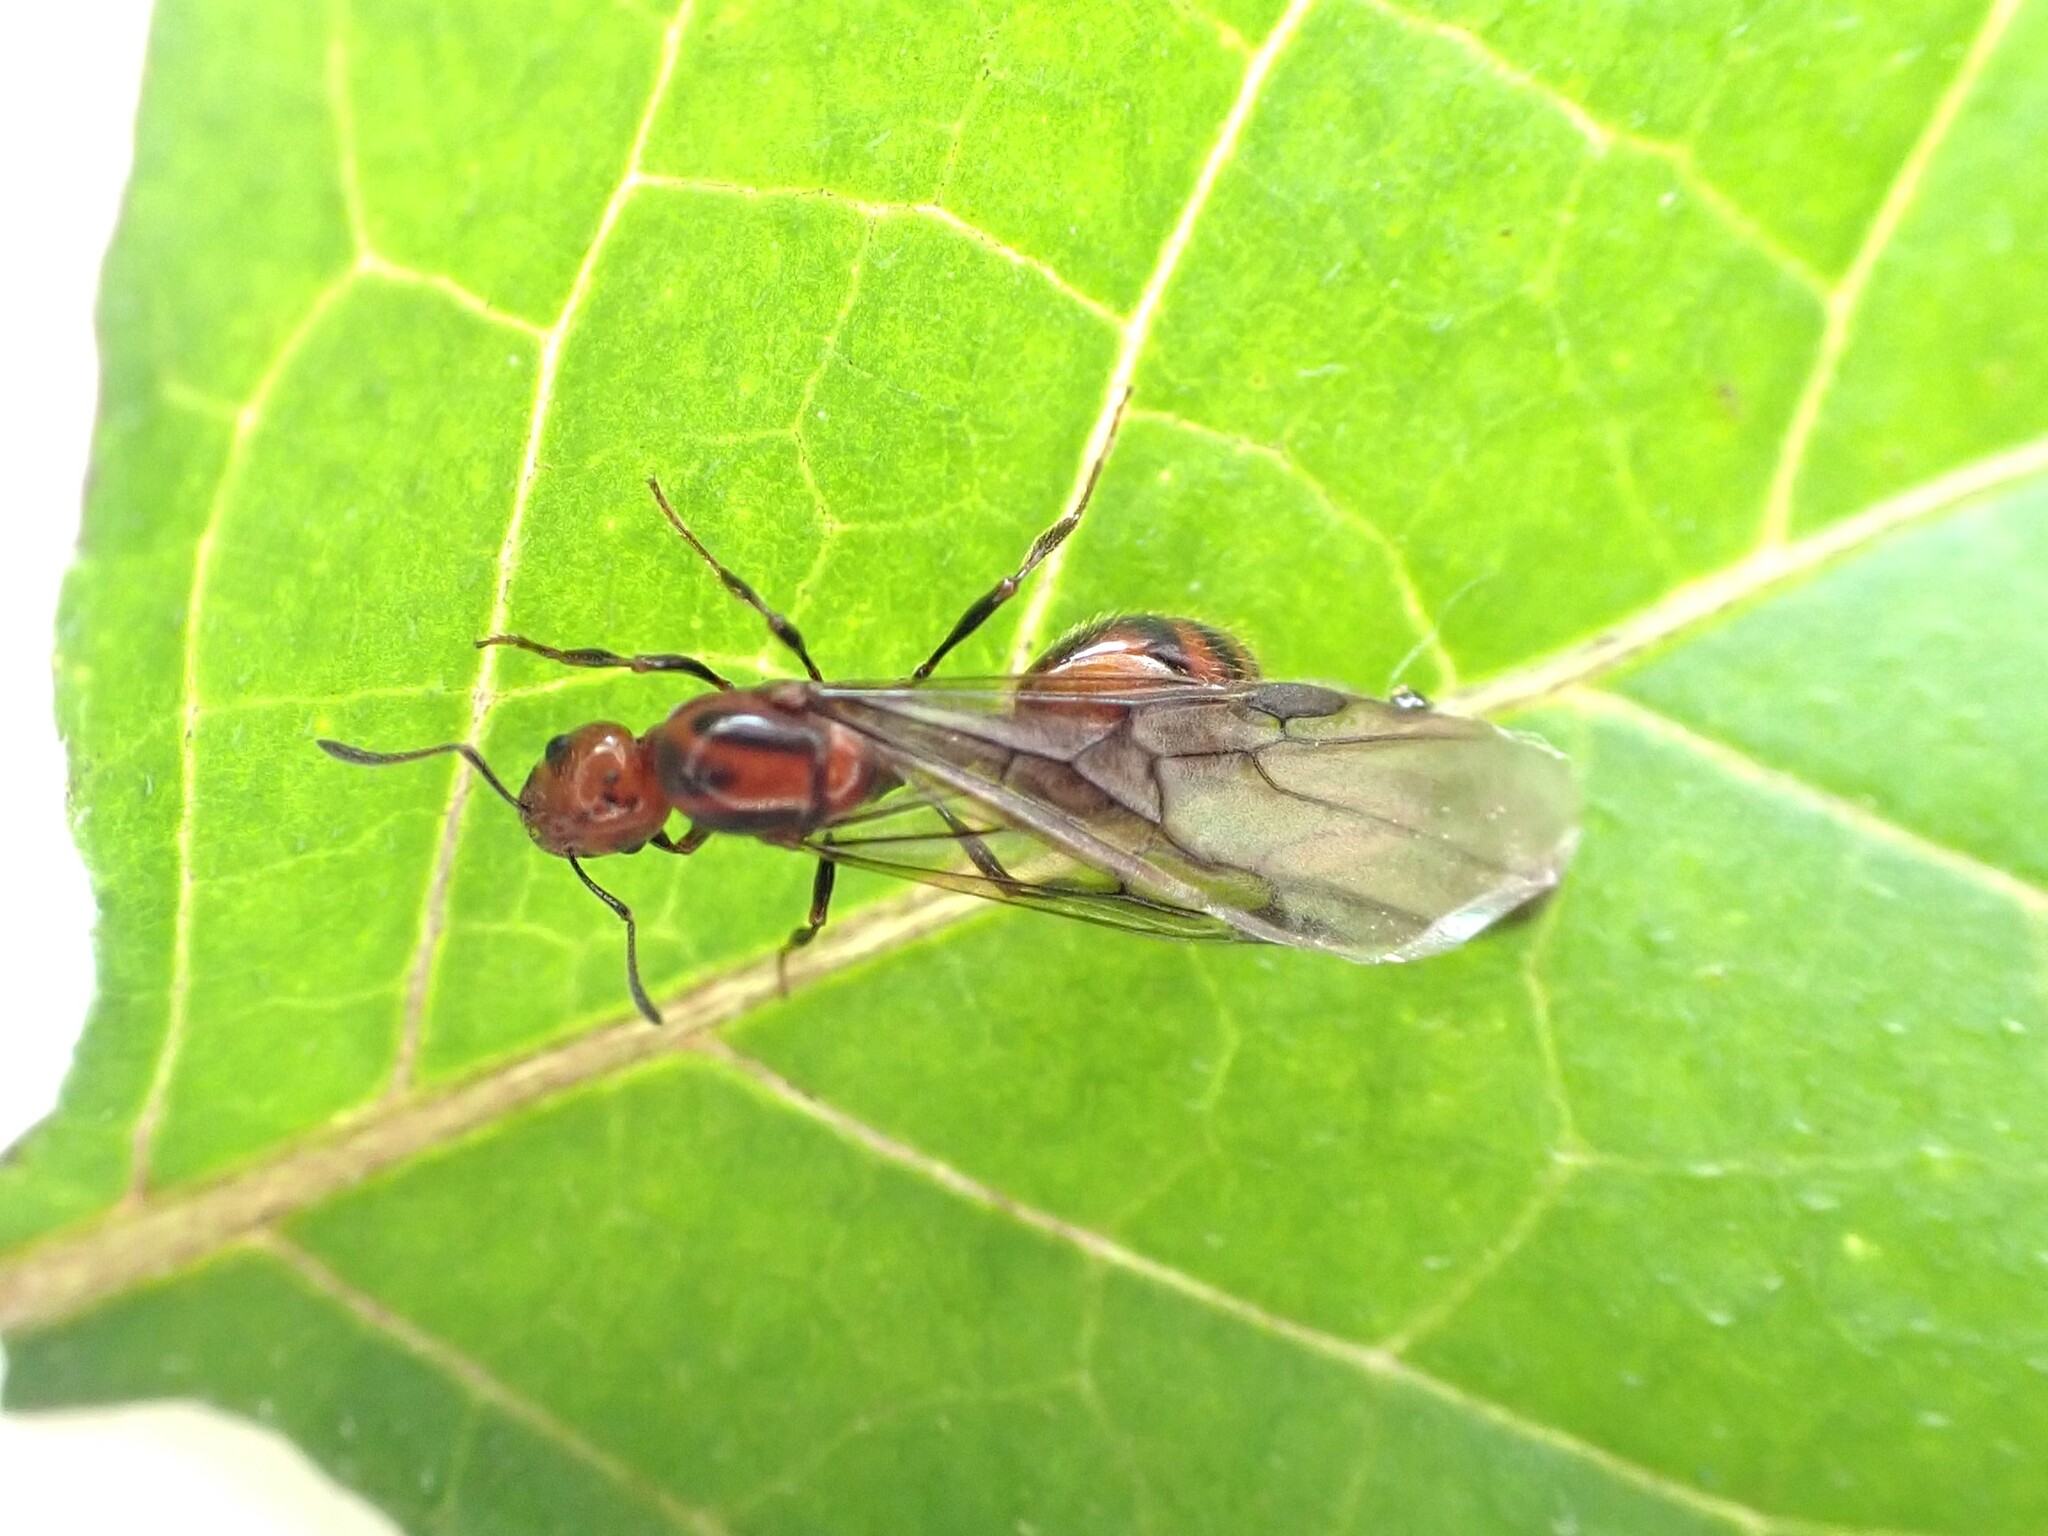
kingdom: Animalia
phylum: Arthropoda
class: Insecta
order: Hymenoptera
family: Formicidae
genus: Monomorium
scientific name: Monomorium antarcticum
